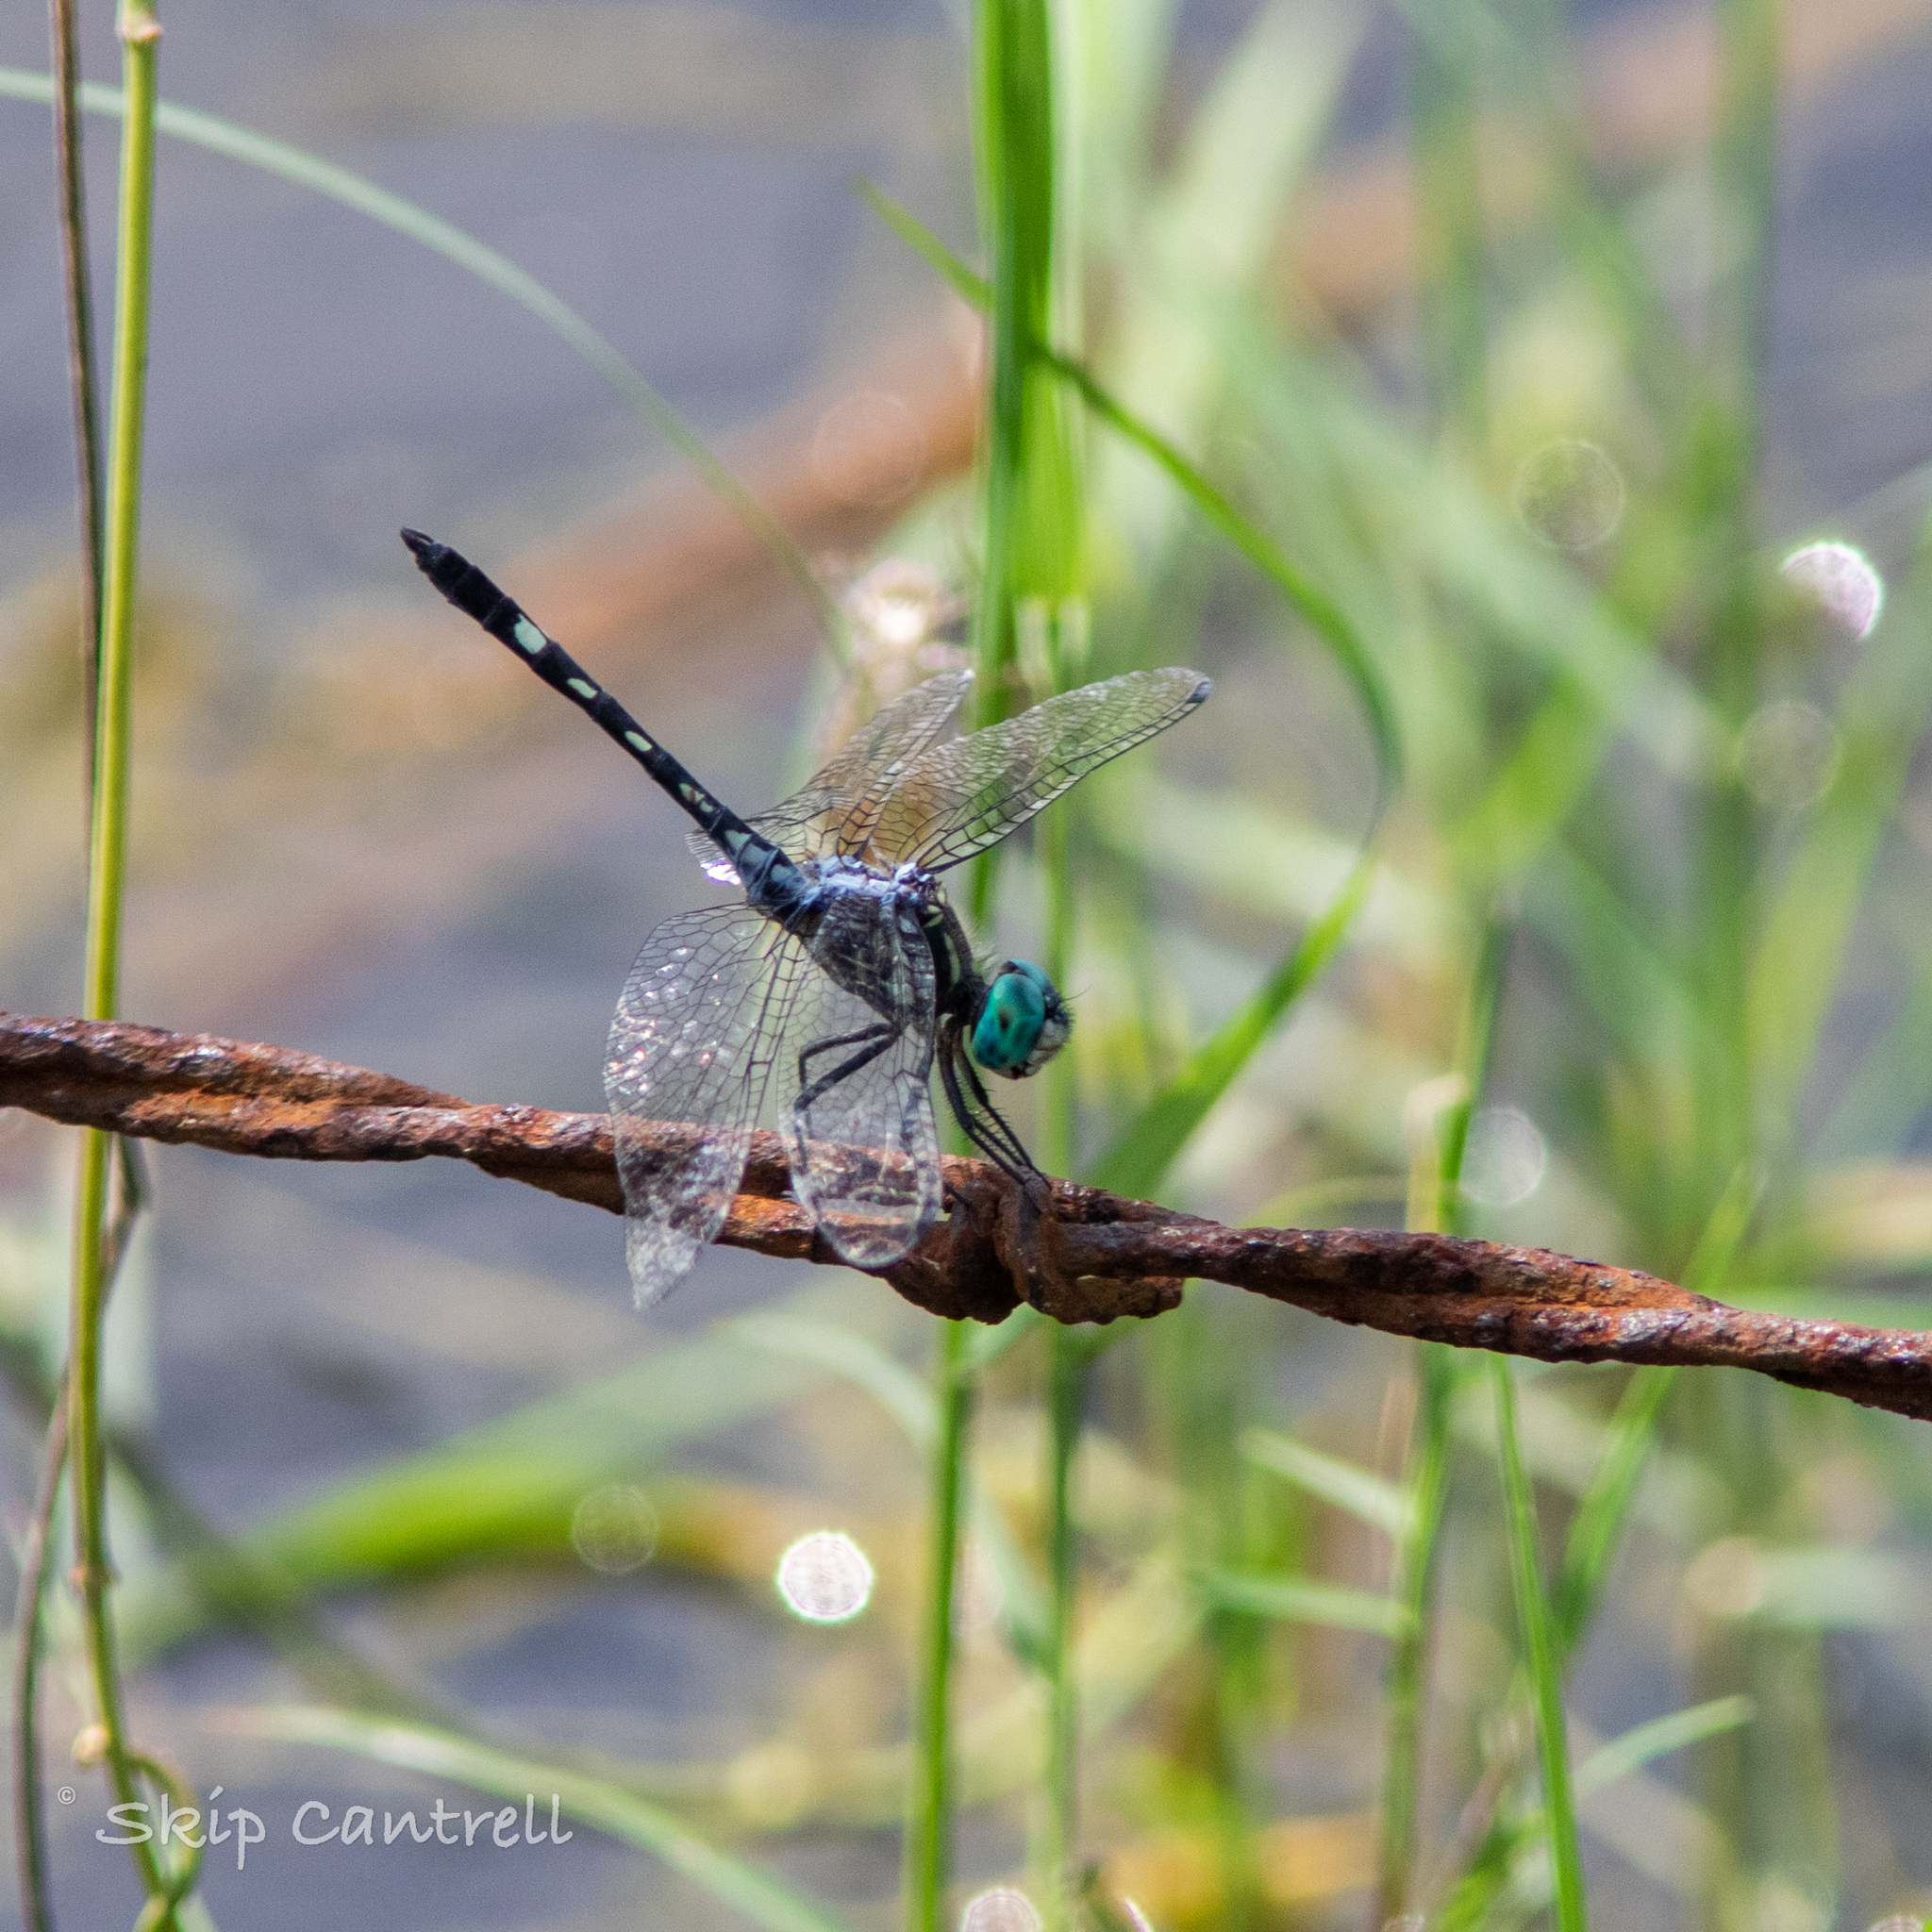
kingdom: Animalia
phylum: Arthropoda
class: Insecta
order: Odonata
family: Libellulidae
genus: Micrathyria
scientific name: Micrathyria hagenii
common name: Thornbush dasher
